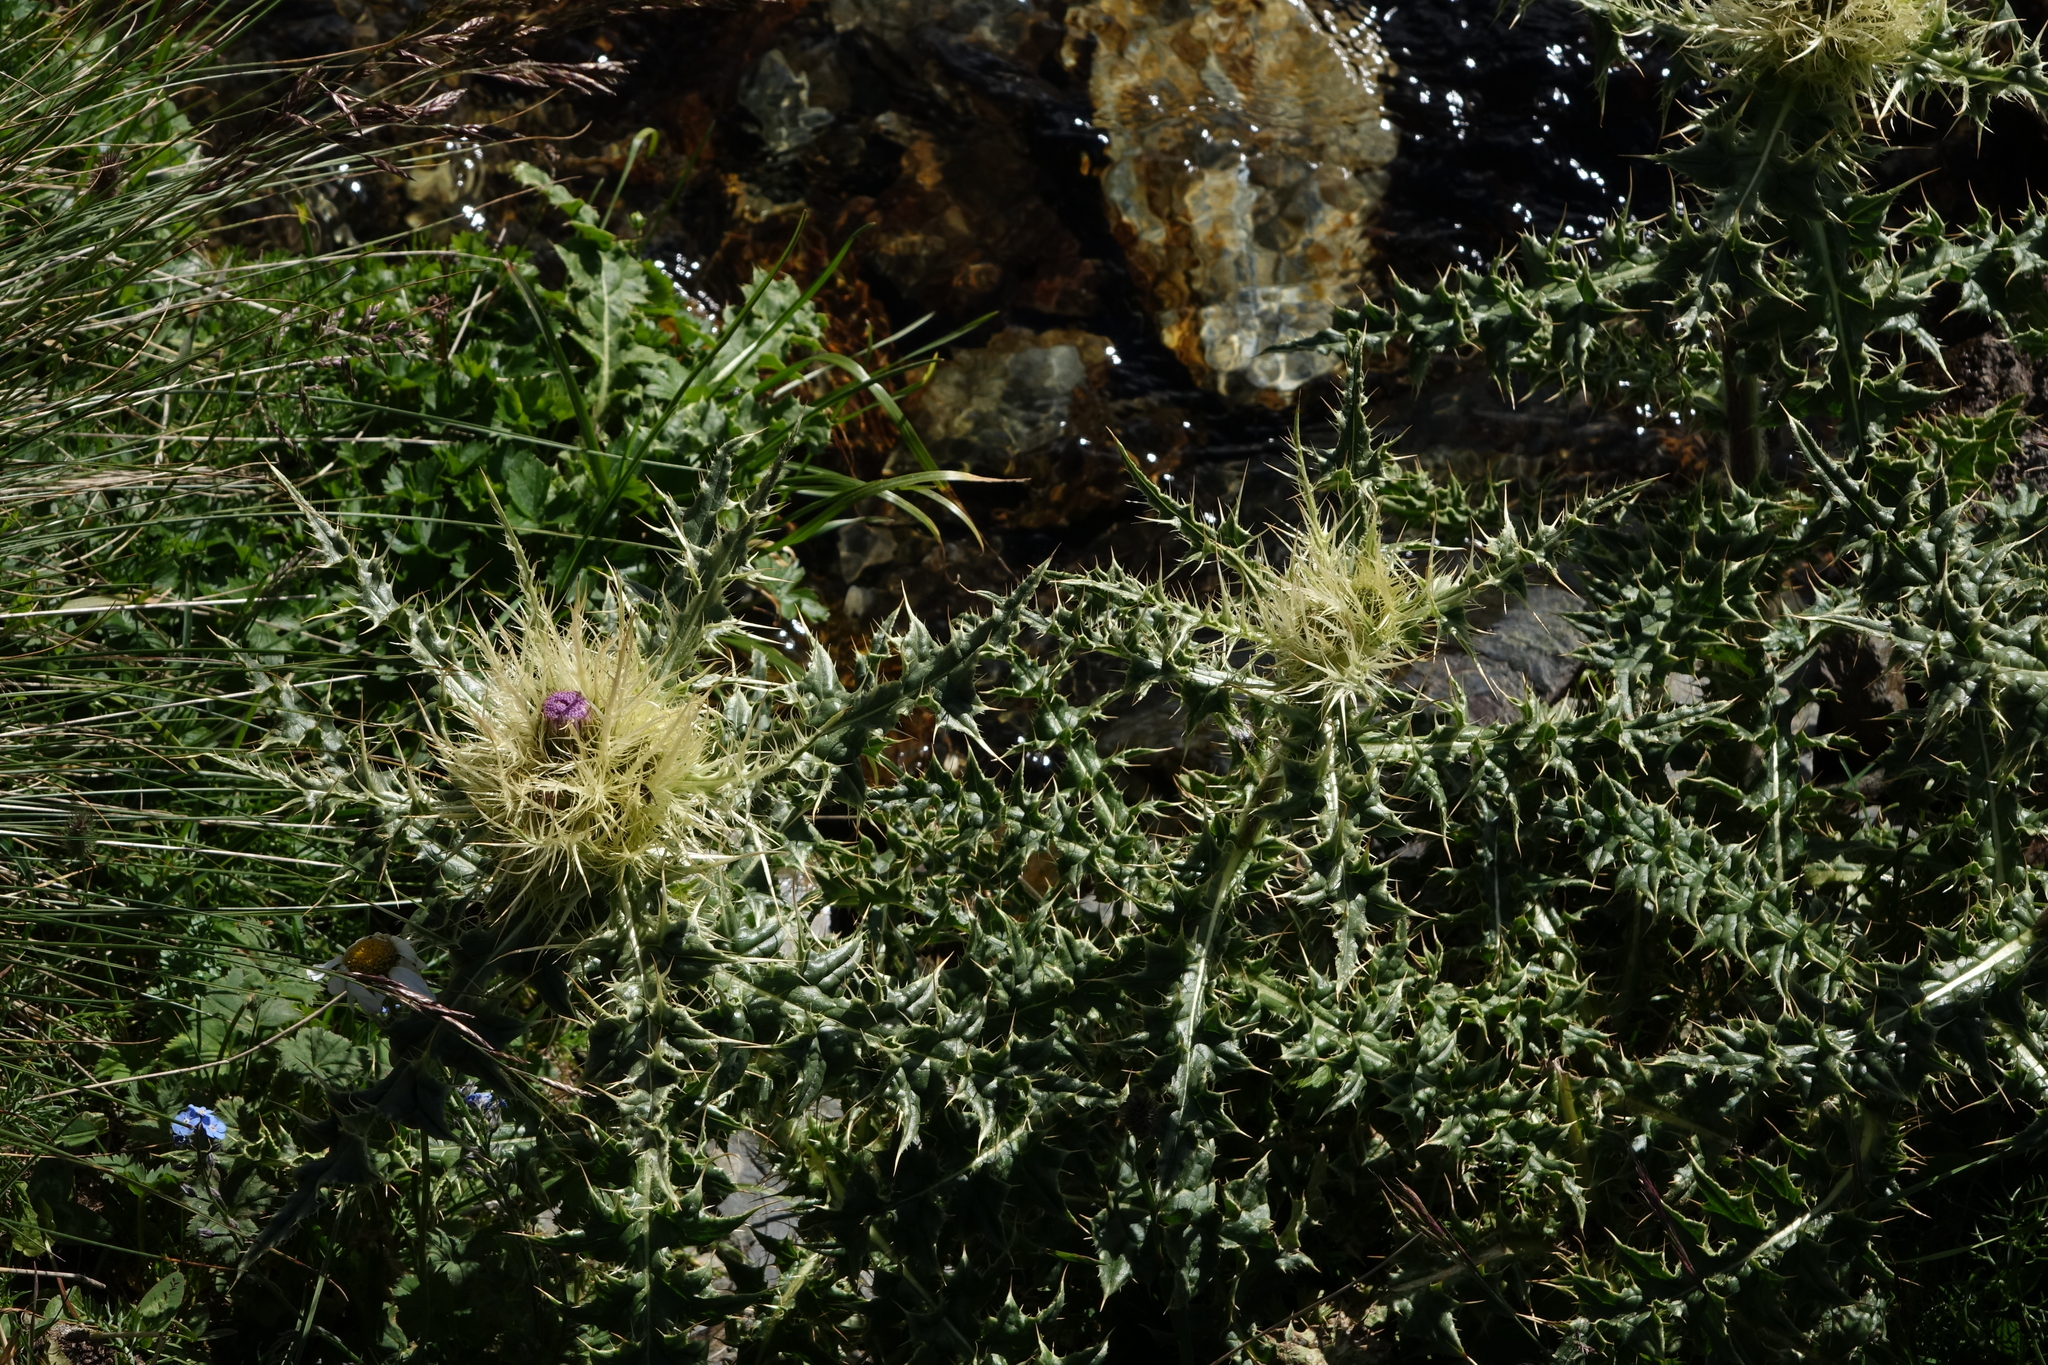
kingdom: Plantae
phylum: Tracheophyta
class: Magnoliopsida
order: Asterales
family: Asteraceae
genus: Cirsium
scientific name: Cirsium obvallatum
